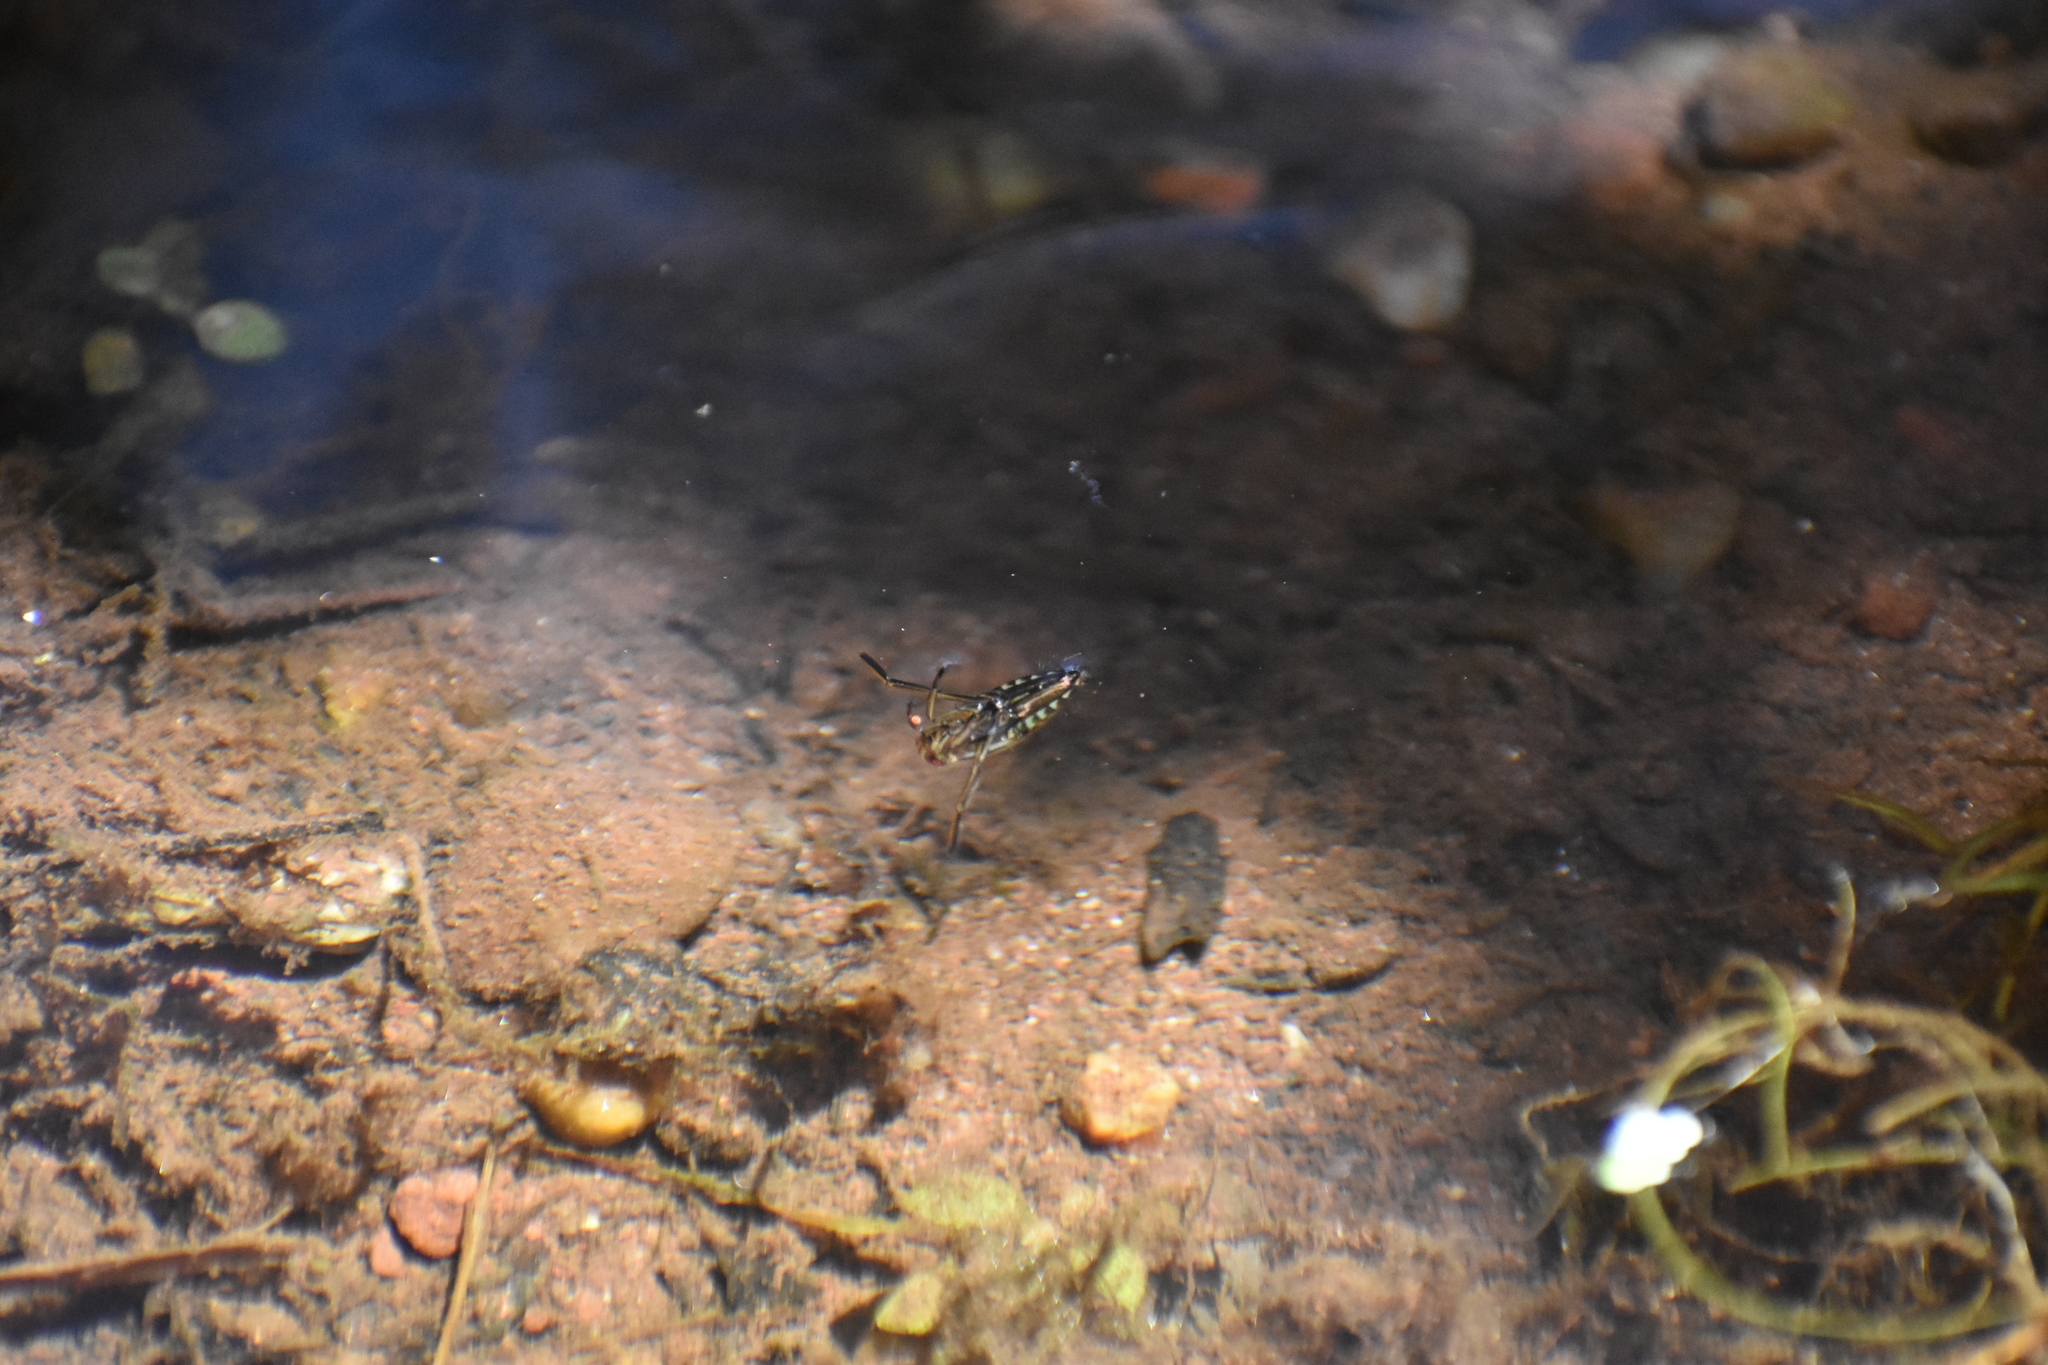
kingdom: Animalia
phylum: Arthropoda
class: Insecta
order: Hemiptera
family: Notonectidae
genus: Notonecta
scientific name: Notonecta
